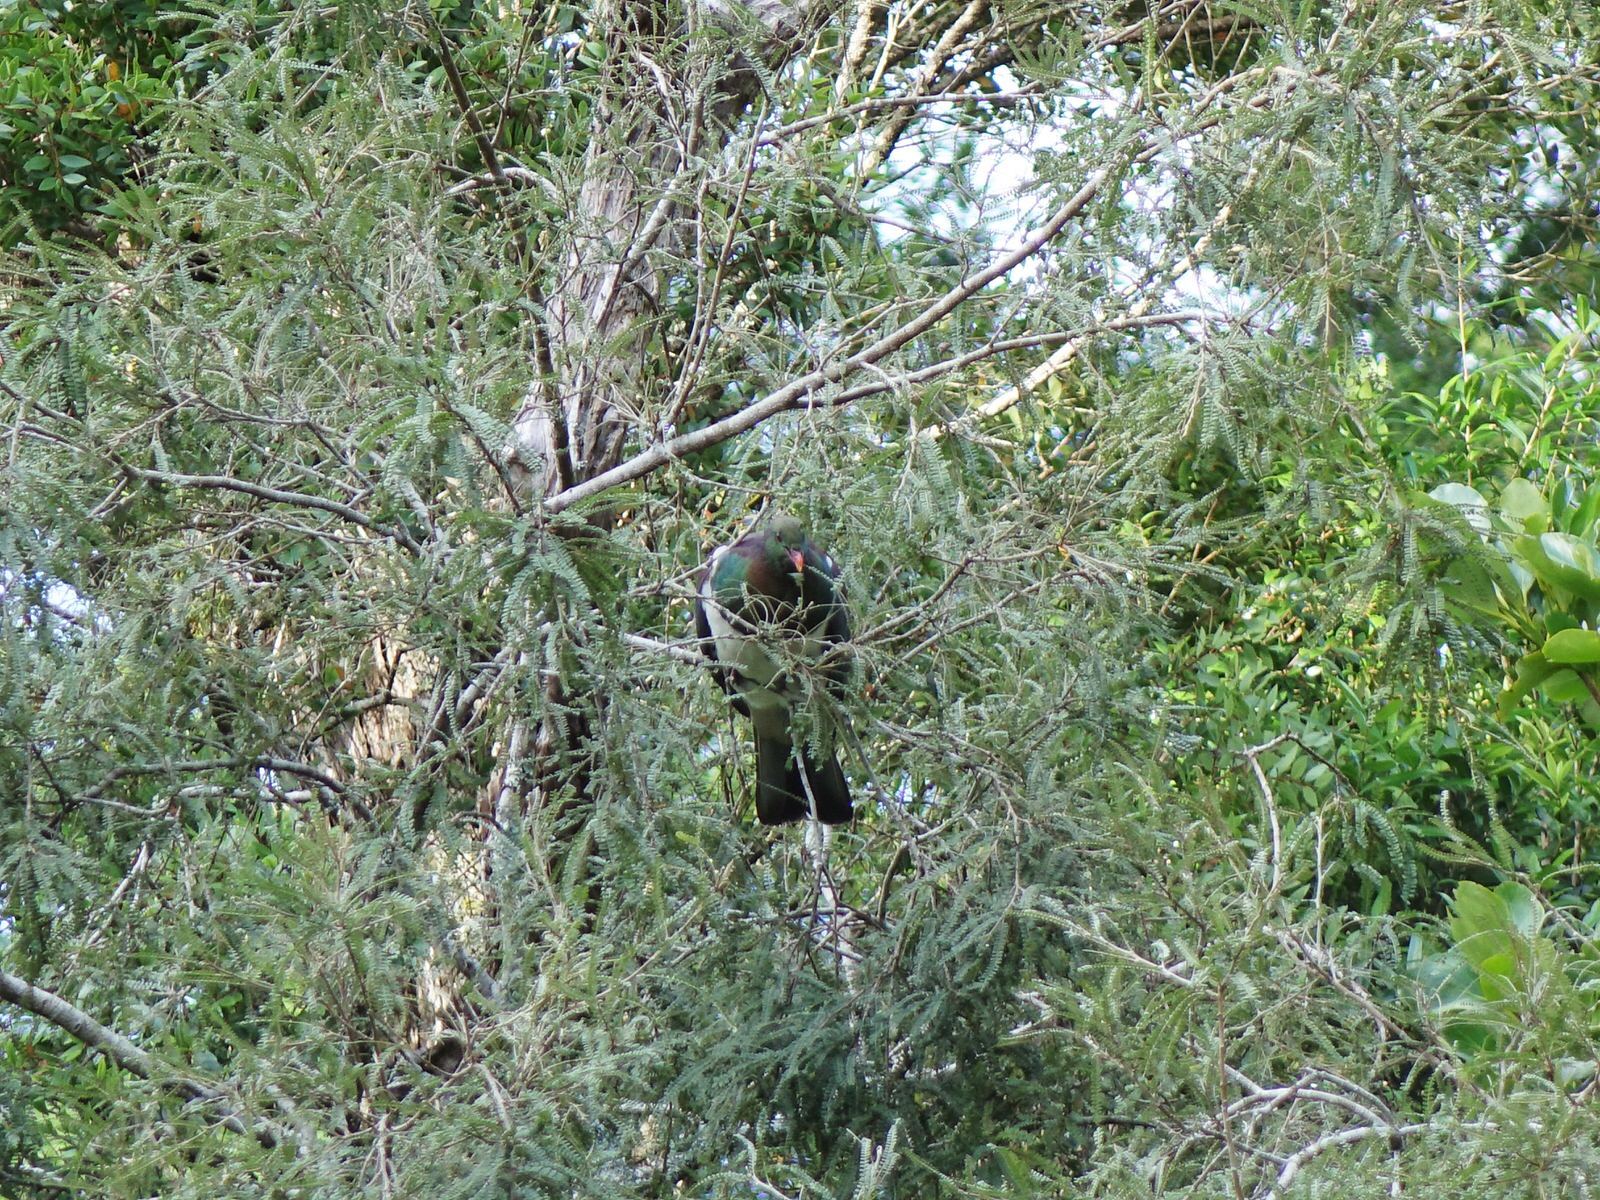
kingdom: Animalia
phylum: Chordata
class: Aves
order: Columbiformes
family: Columbidae
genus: Hemiphaga
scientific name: Hemiphaga novaeseelandiae
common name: New zealand pigeon
